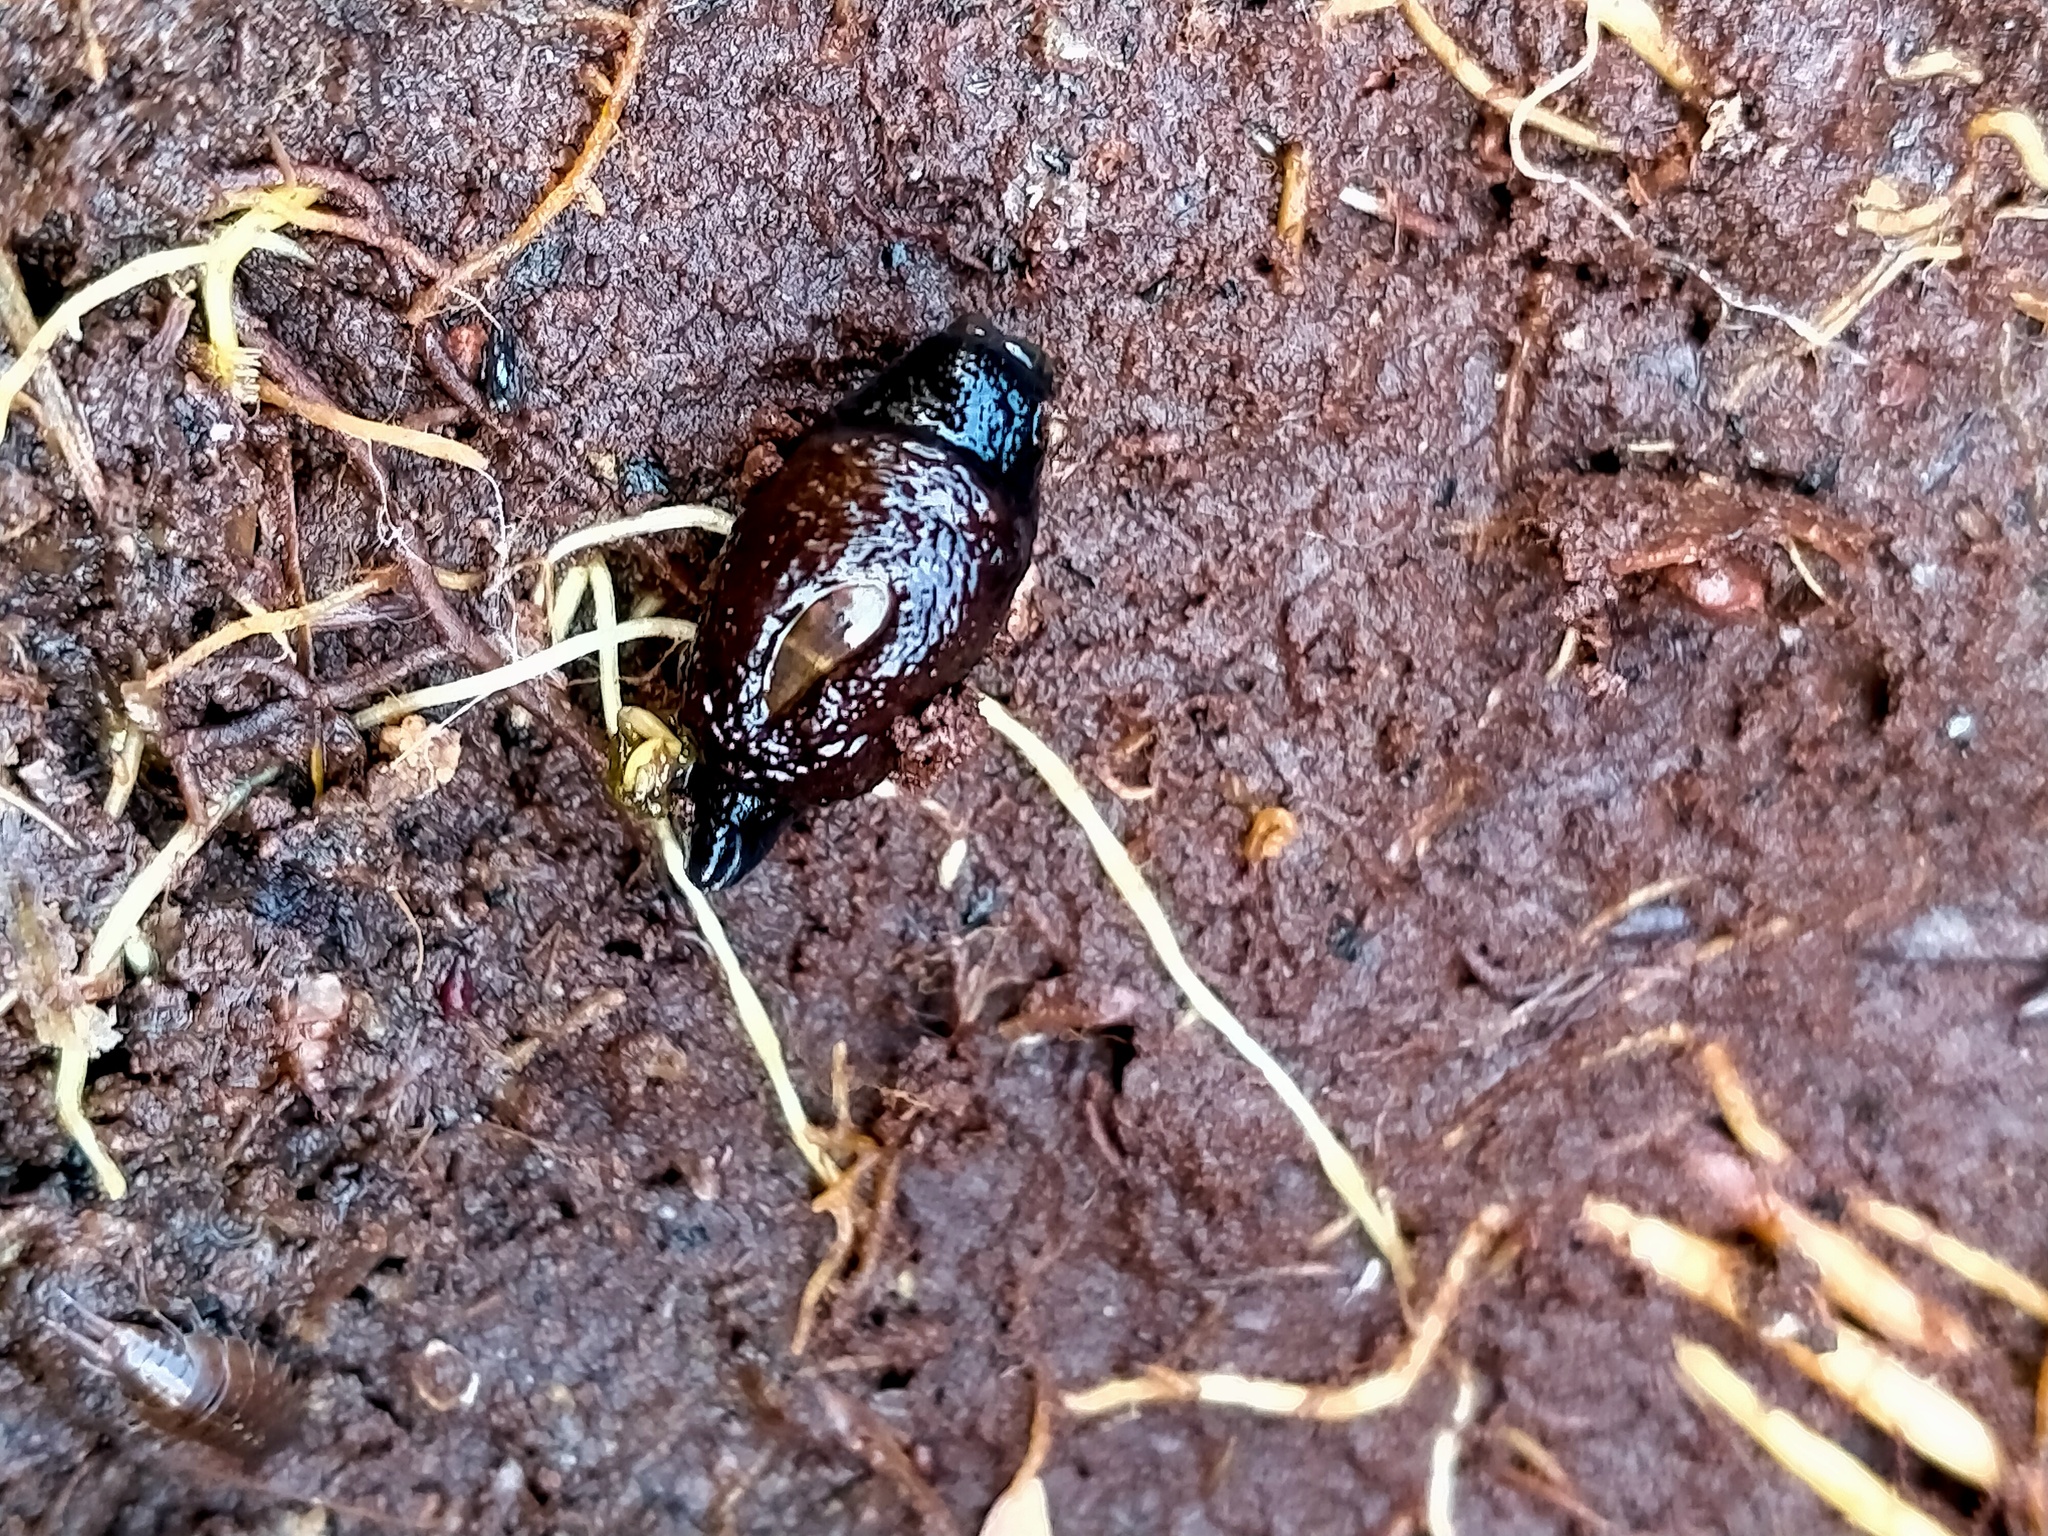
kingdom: Animalia
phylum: Mollusca
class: Gastropoda
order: Stylommatophora
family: Charopidae
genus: Ranfurlya
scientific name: Ranfurlya constanceae
